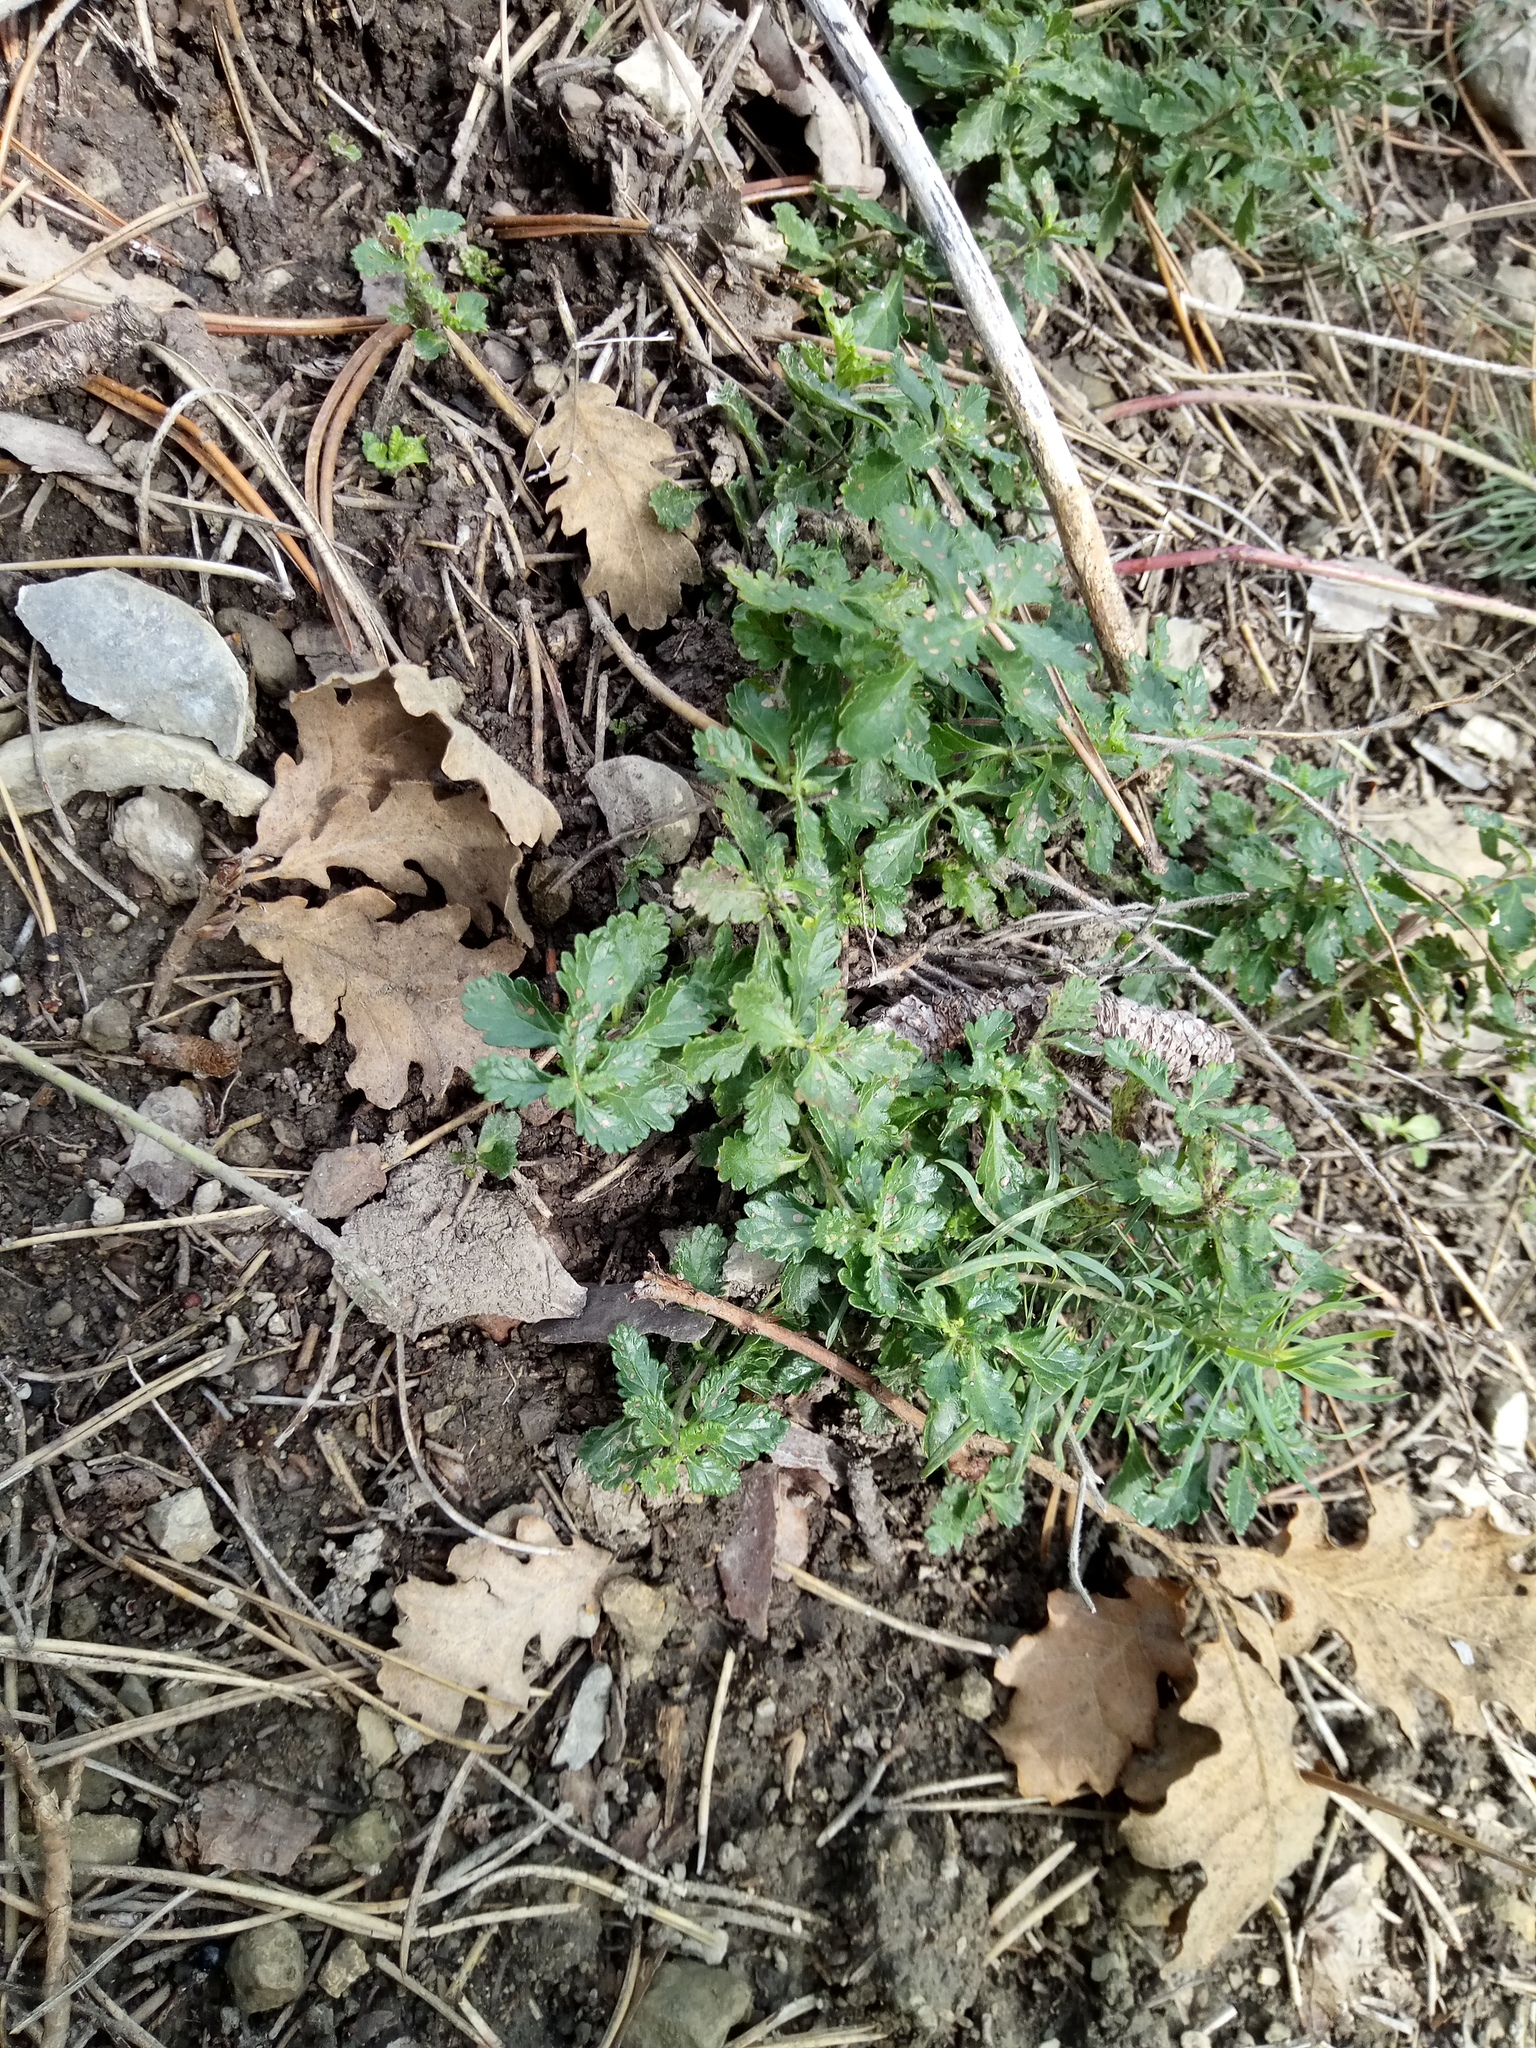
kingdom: Plantae
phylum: Tracheophyta
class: Magnoliopsida
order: Lamiales
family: Lamiaceae
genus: Teucrium
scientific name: Teucrium chamaedrys
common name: Wall germander
